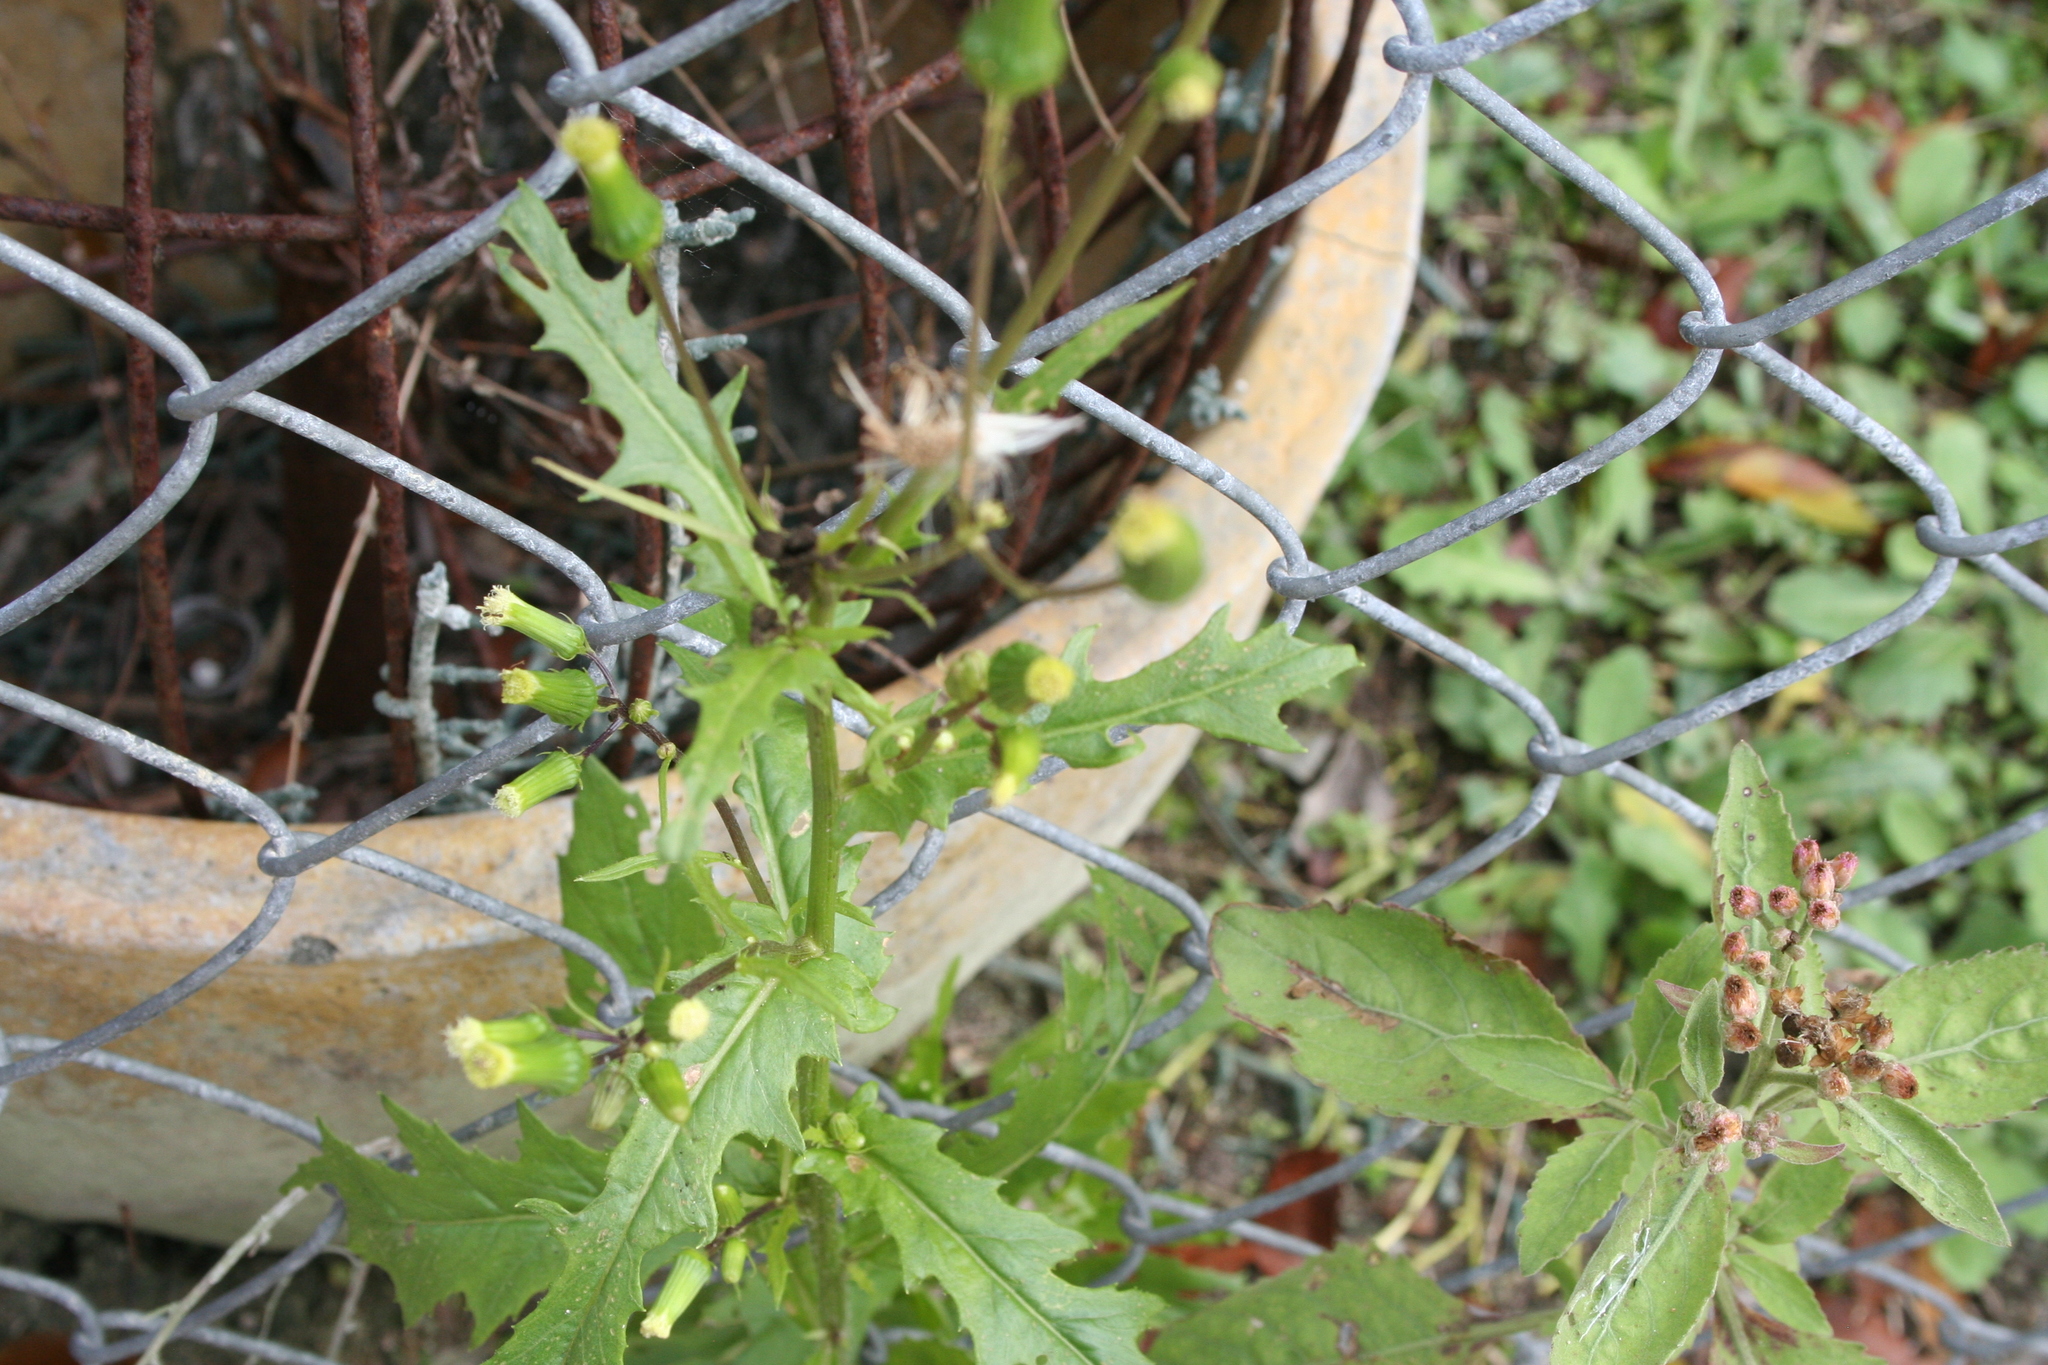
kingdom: Plantae
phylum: Tracheophyta
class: Magnoliopsida
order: Asterales
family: Asteraceae
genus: Erechtites
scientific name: Erechtites hieraciifolius
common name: American burnweed
